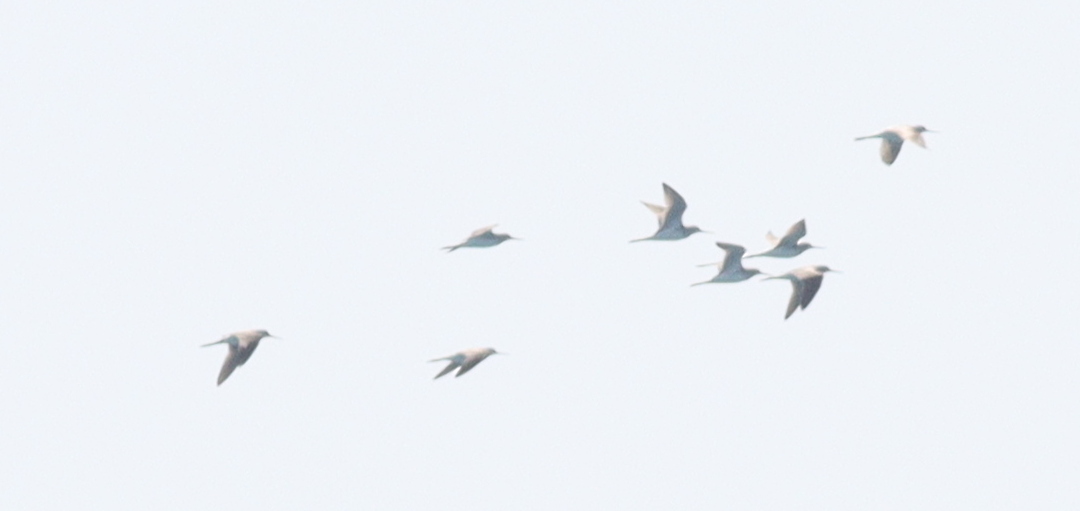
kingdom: Animalia
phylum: Chordata
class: Aves
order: Charadriiformes
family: Scolopacidae
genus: Tringa
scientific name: Tringa stagnatilis
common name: Marsh sandpiper
